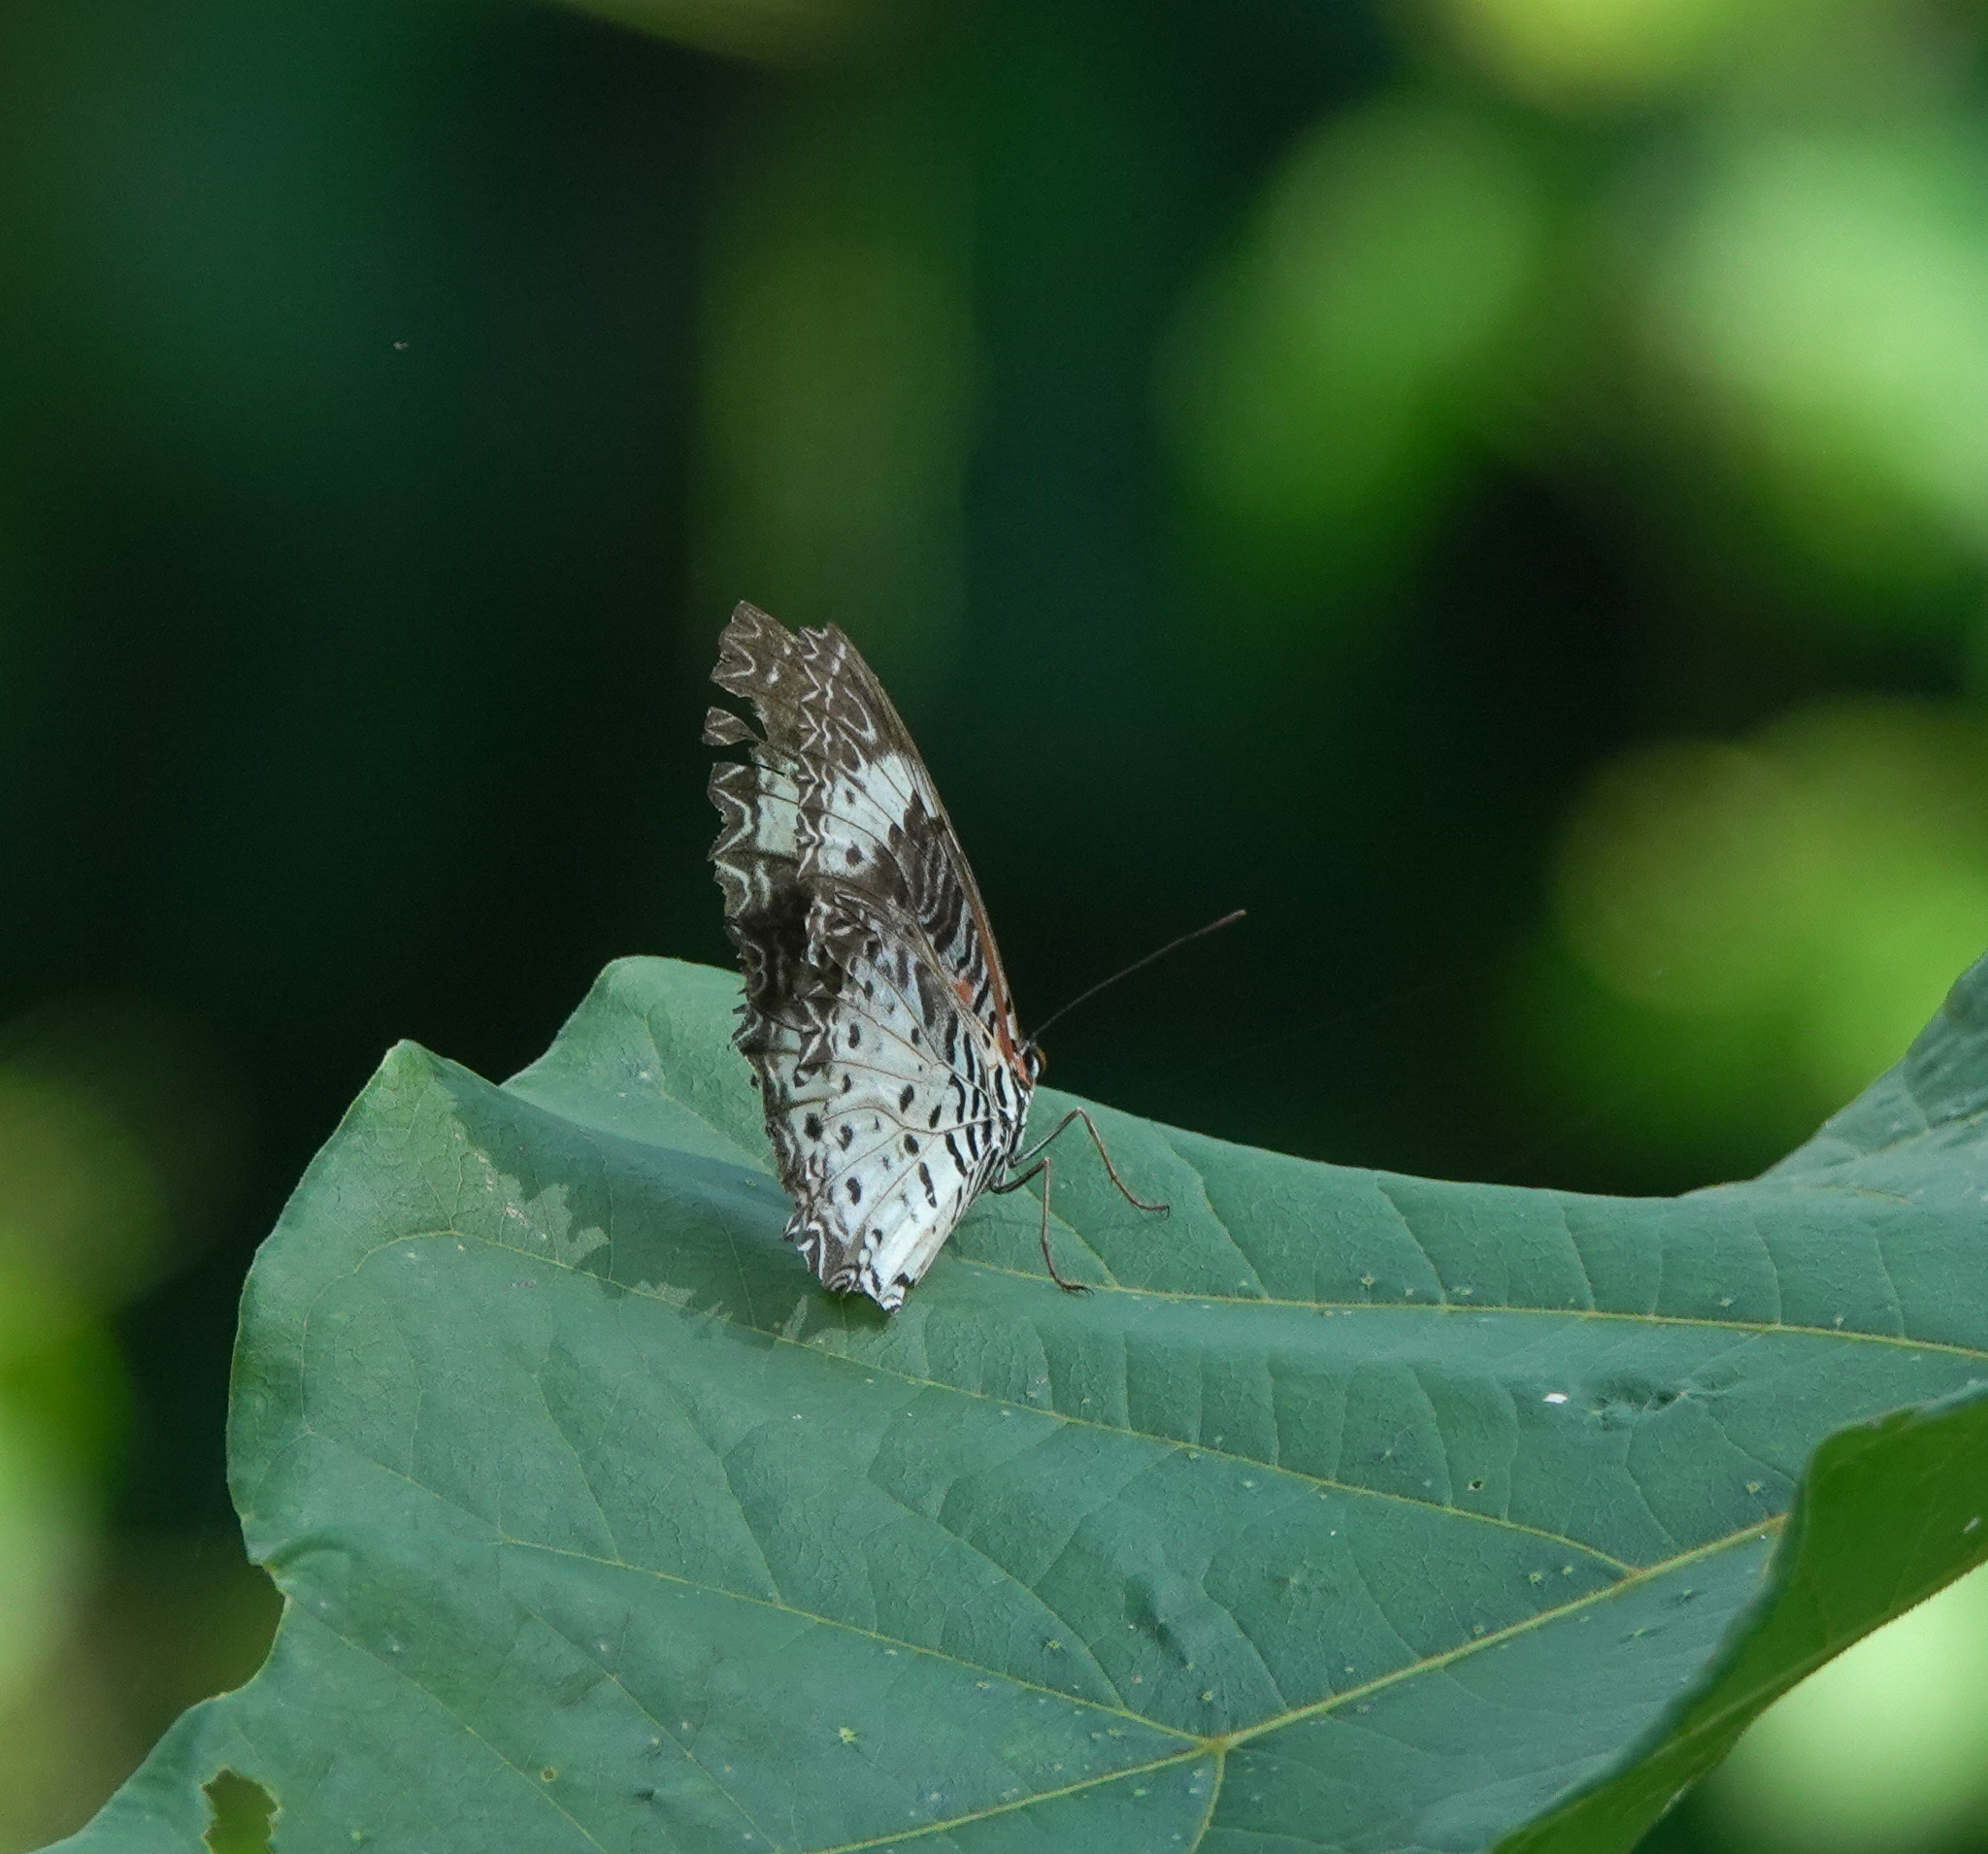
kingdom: Animalia
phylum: Arthropoda
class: Insecta
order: Lepidoptera
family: Nymphalidae
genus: Cethosia
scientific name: Cethosia cyane
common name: Leopard lacewing butterfly
